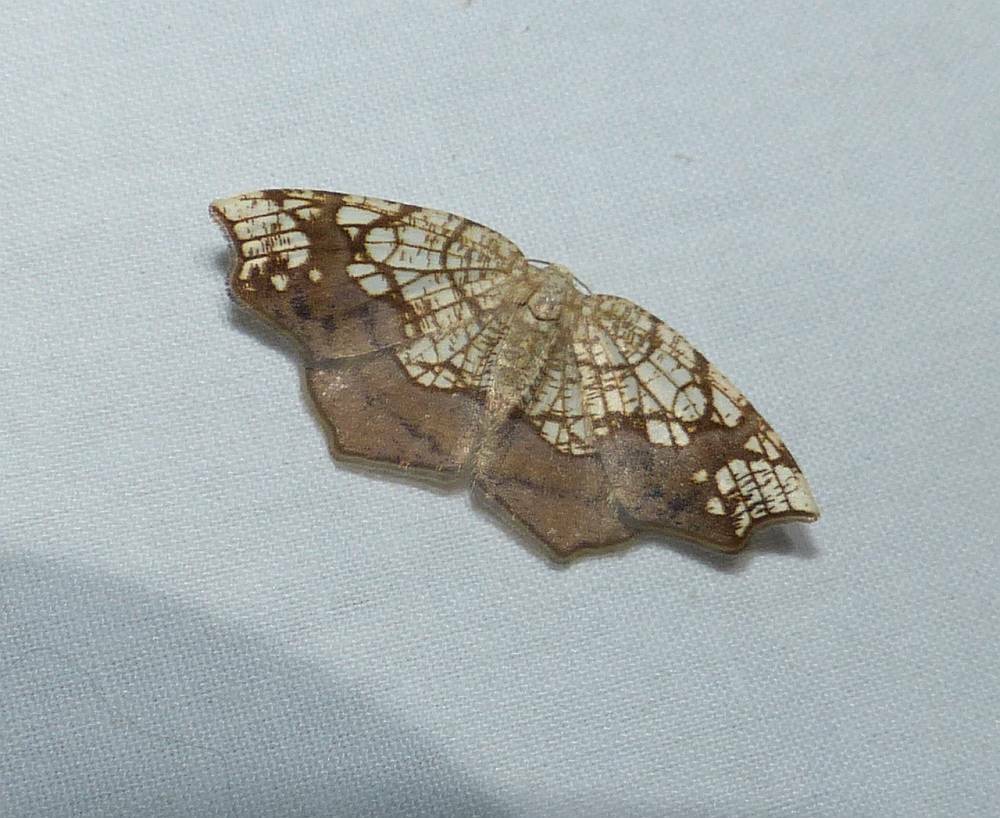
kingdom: Animalia
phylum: Arthropoda
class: Insecta
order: Lepidoptera
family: Geometridae
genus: Nematocampa
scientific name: Nematocampa resistaria
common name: Horned spanworm moth
